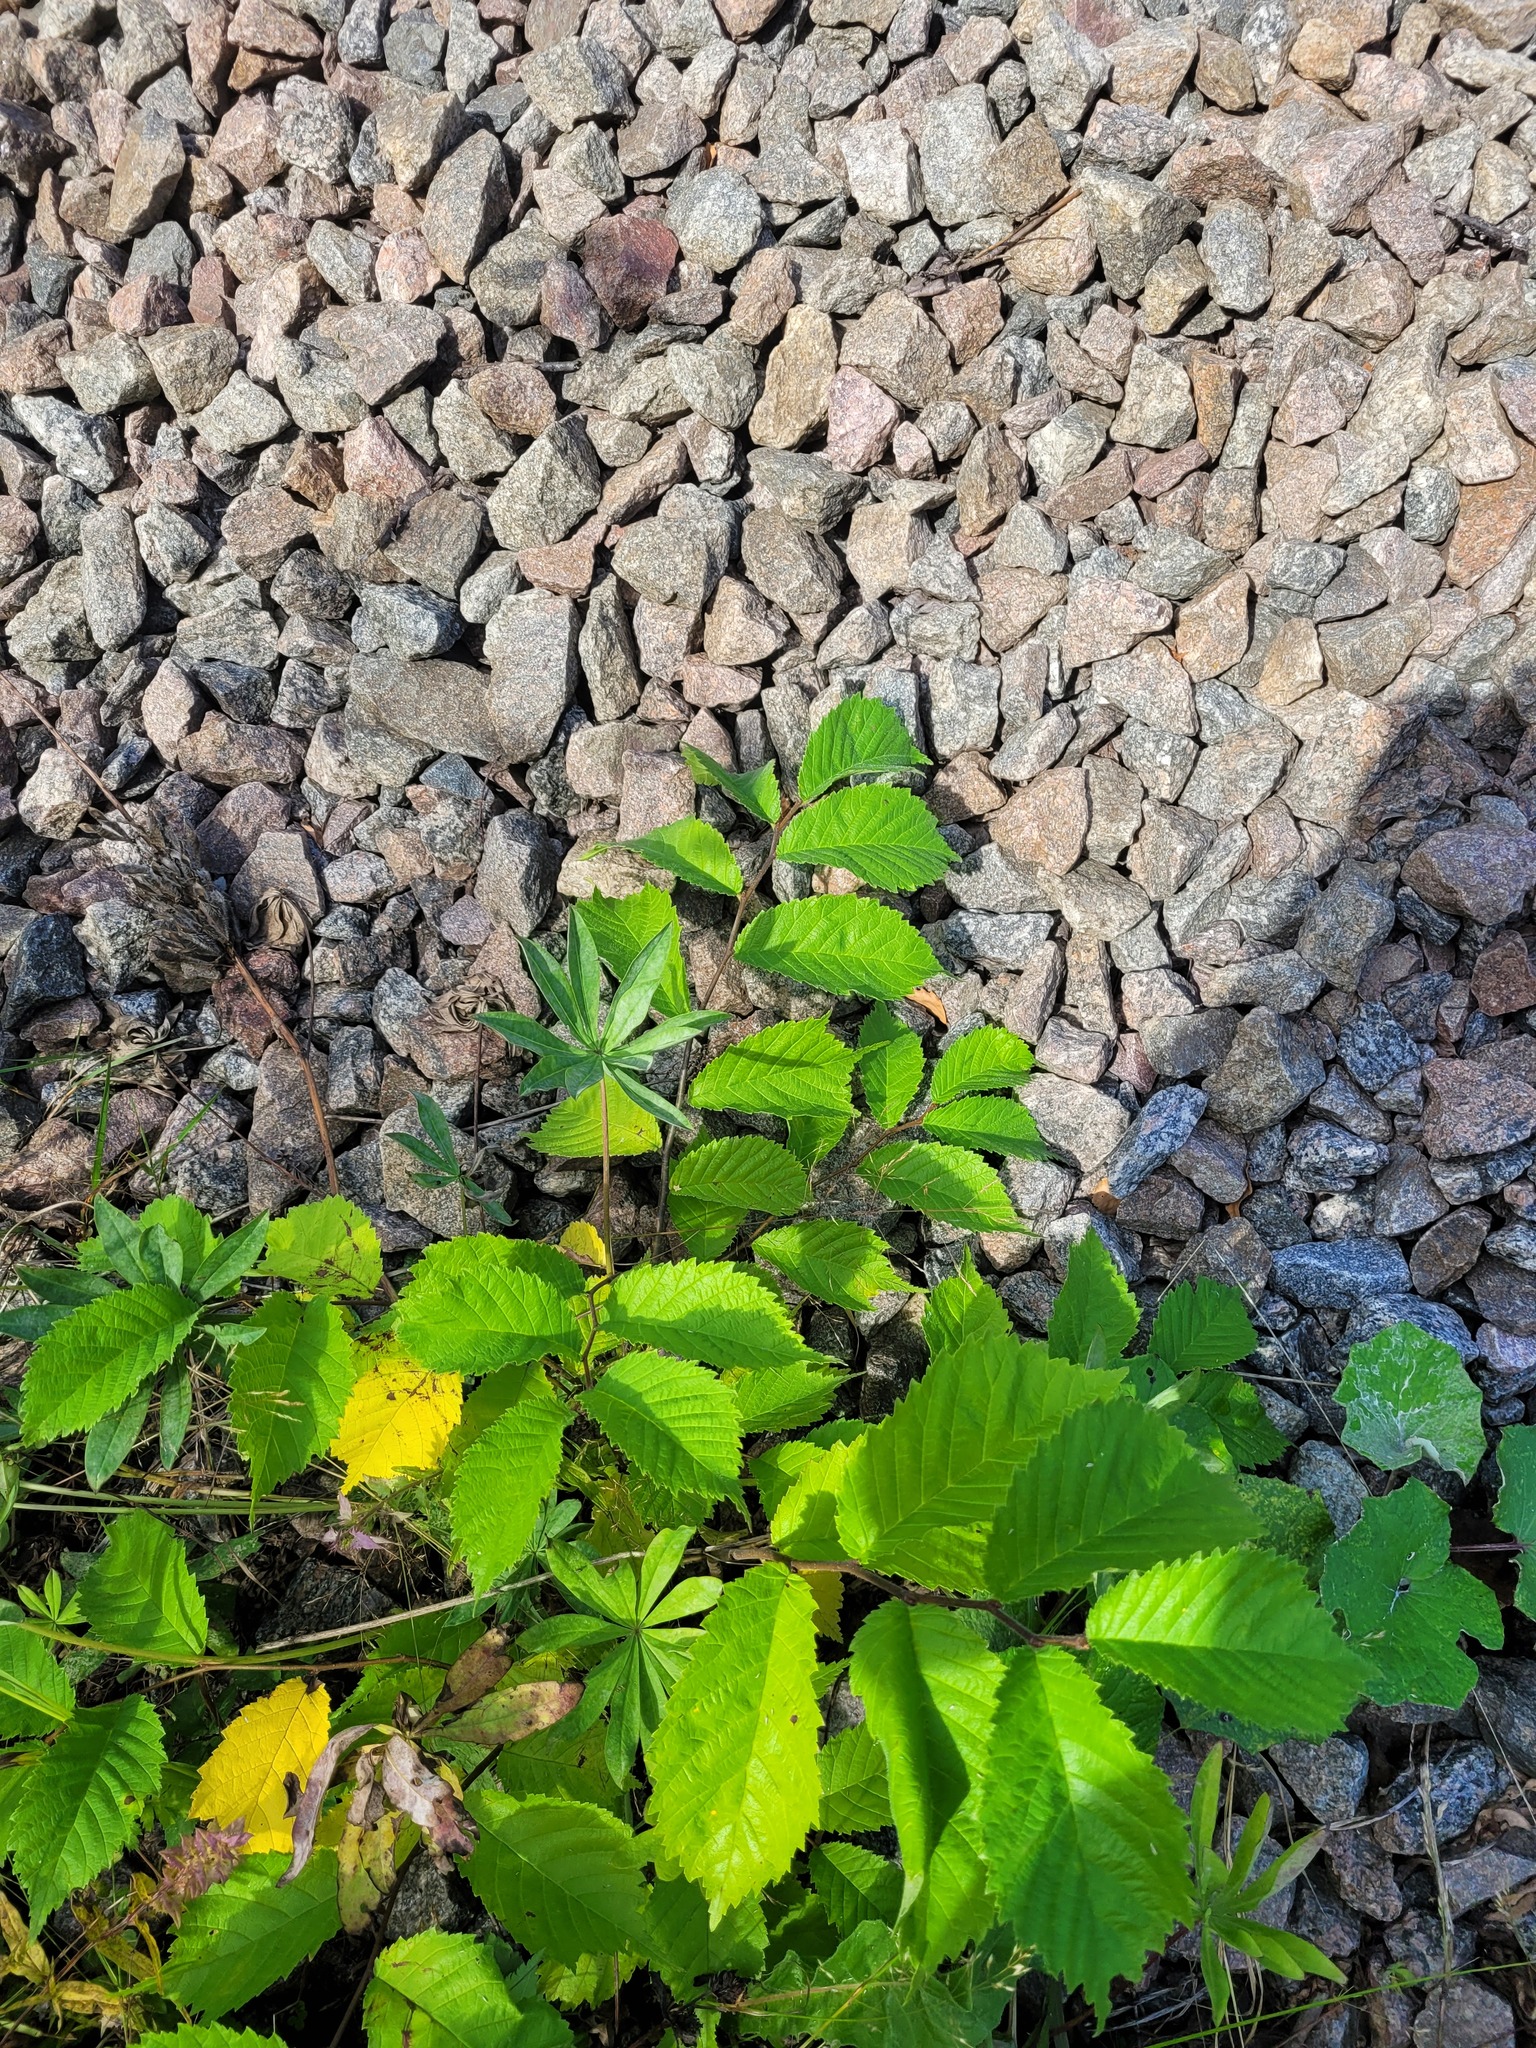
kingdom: Plantae
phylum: Tracheophyta
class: Magnoliopsida
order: Rosales
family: Ulmaceae
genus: Ulmus
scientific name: Ulmus glabra
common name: Wych elm
